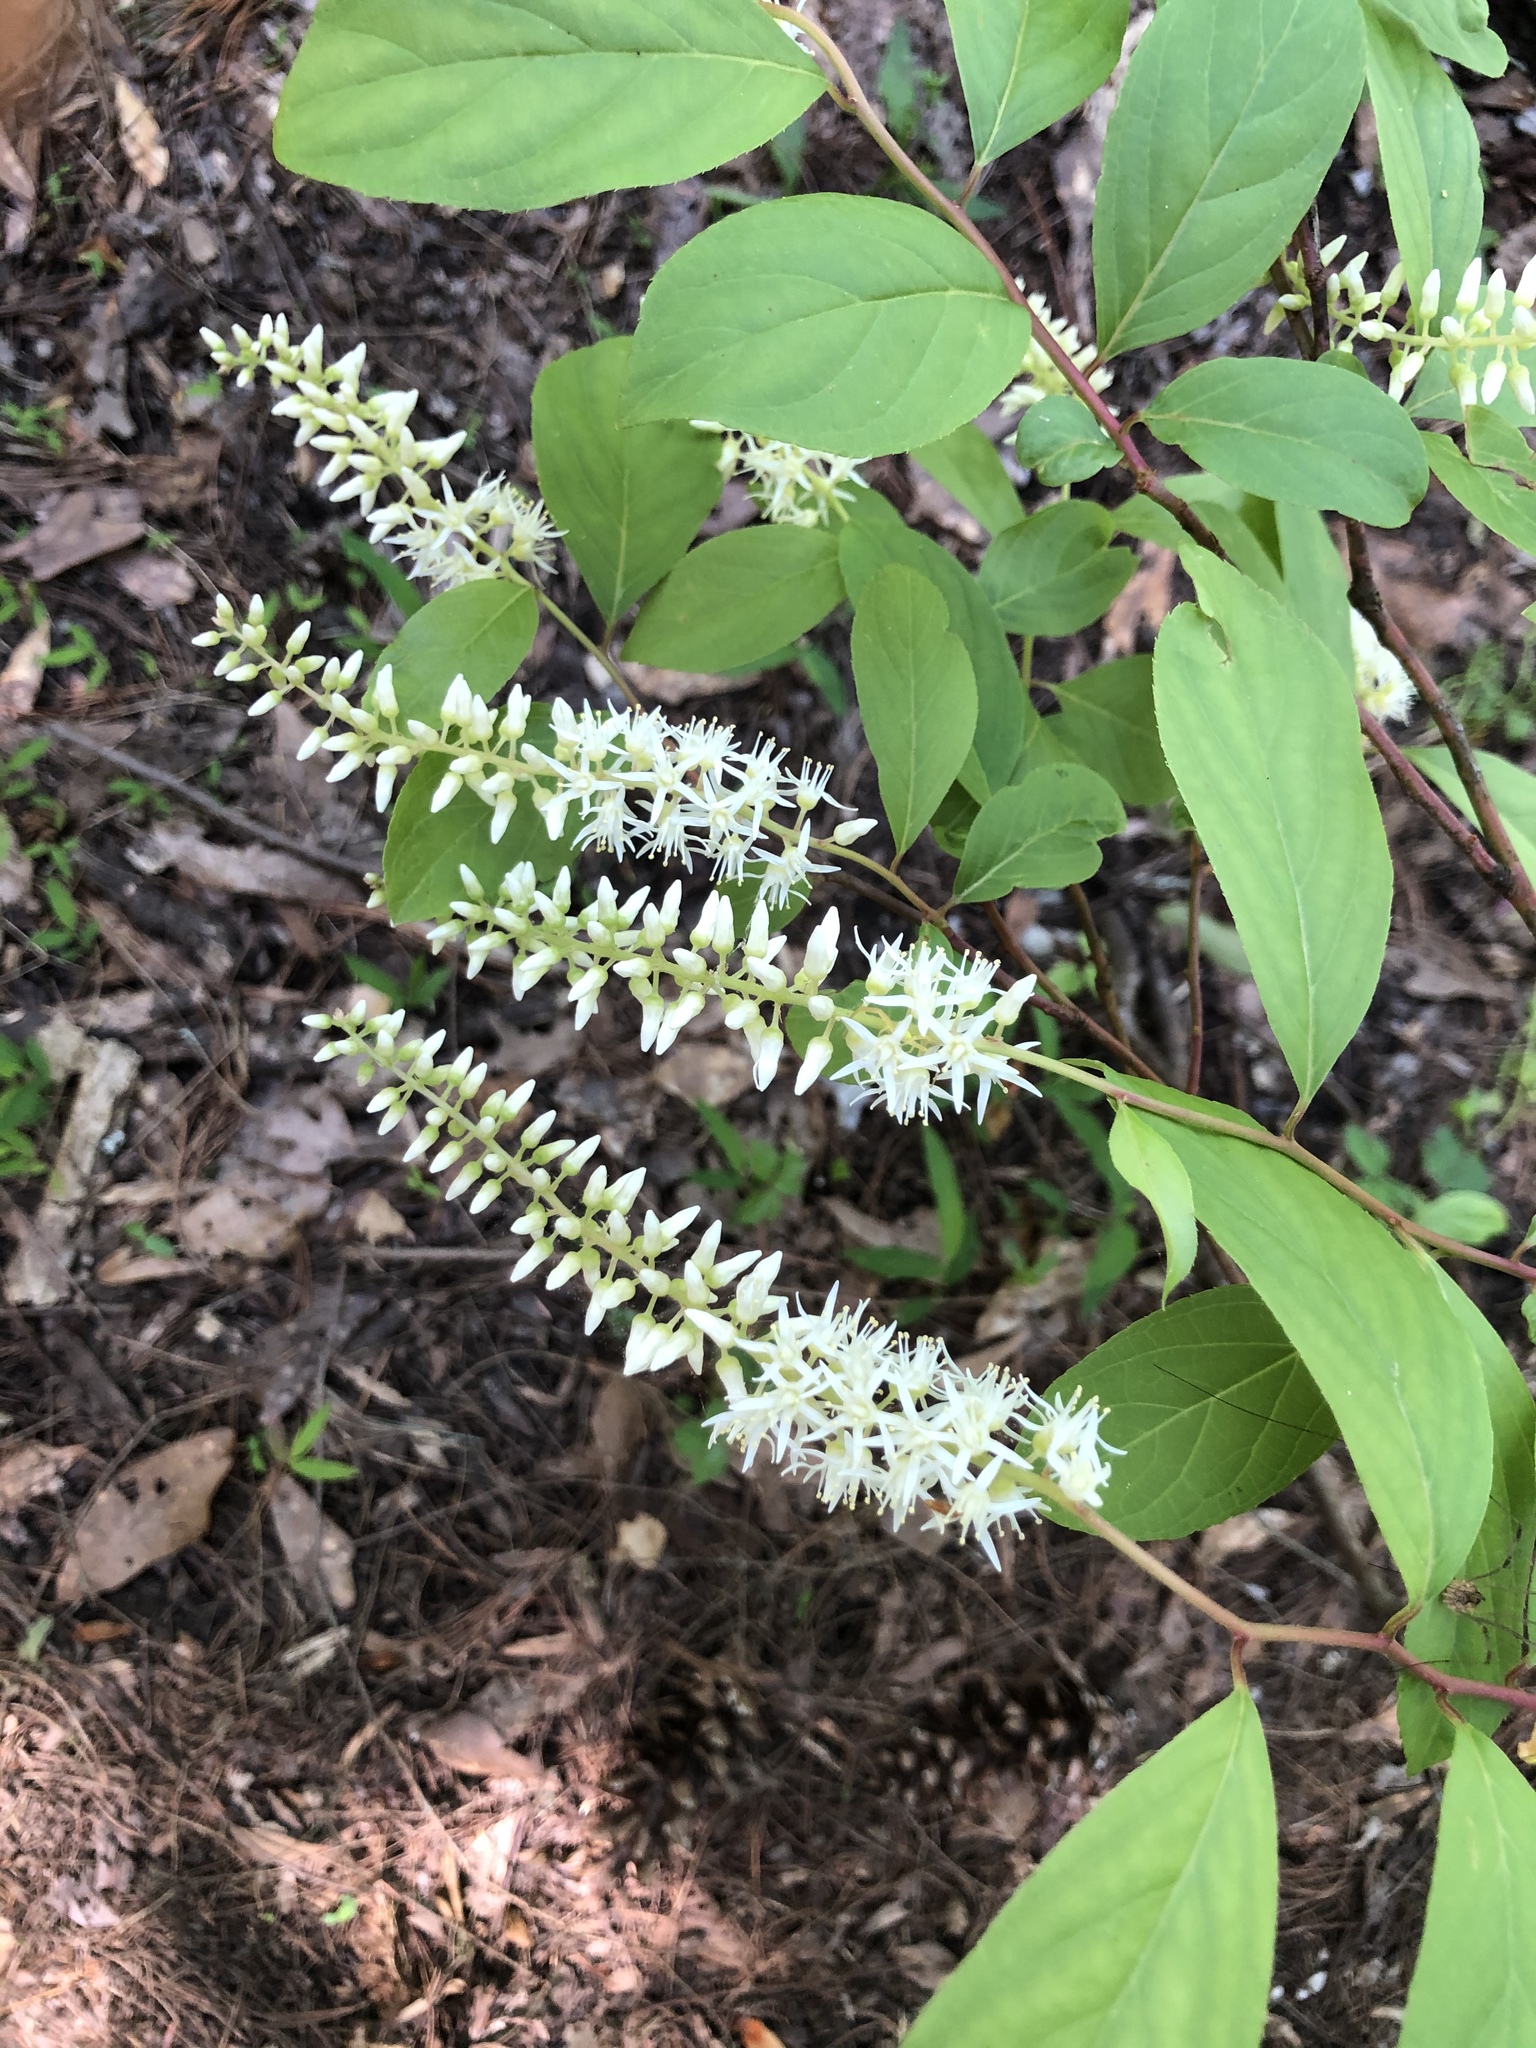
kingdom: Plantae
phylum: Tracheophyta
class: Magnoliopsida
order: Saxifragales
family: Iteaceae
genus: Itea
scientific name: Itea virginica
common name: Sweetspire
